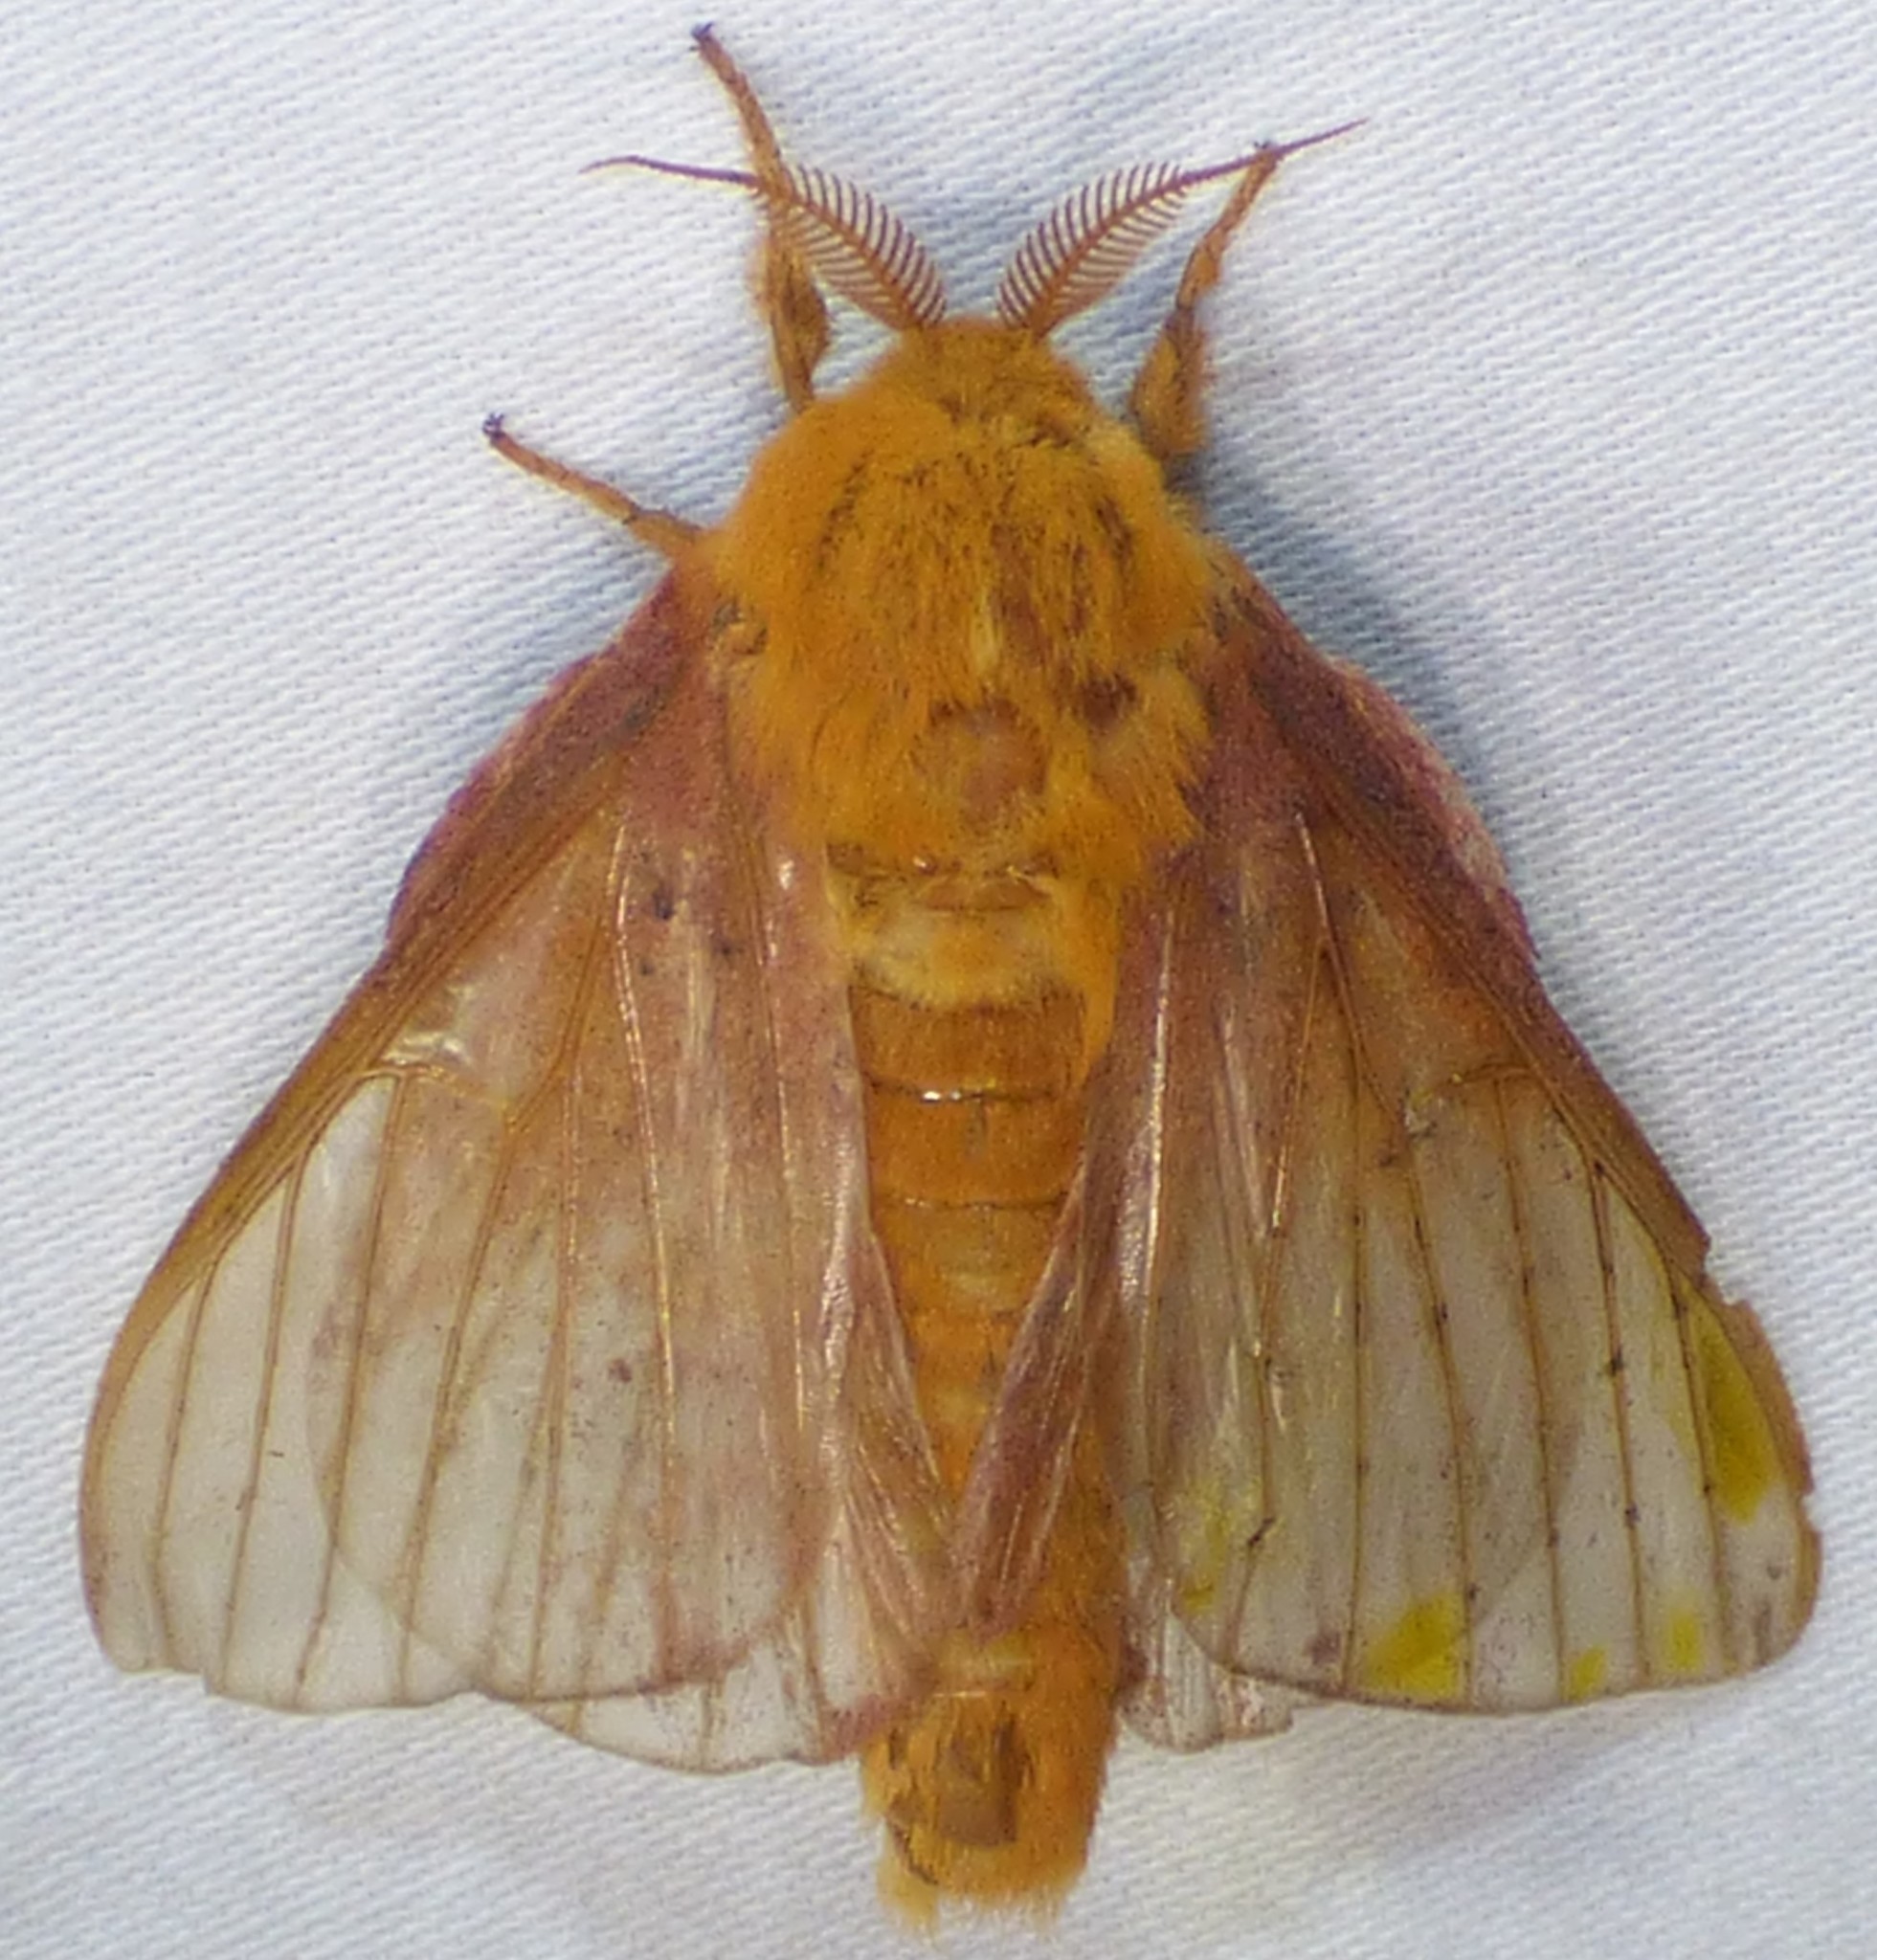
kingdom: Animalia
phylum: Arthropoda
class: Insecta
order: Lepidoptera
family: Saturniidae
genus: Anisota
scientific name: Anisota virginiensis
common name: Pink striped oakworm moth
